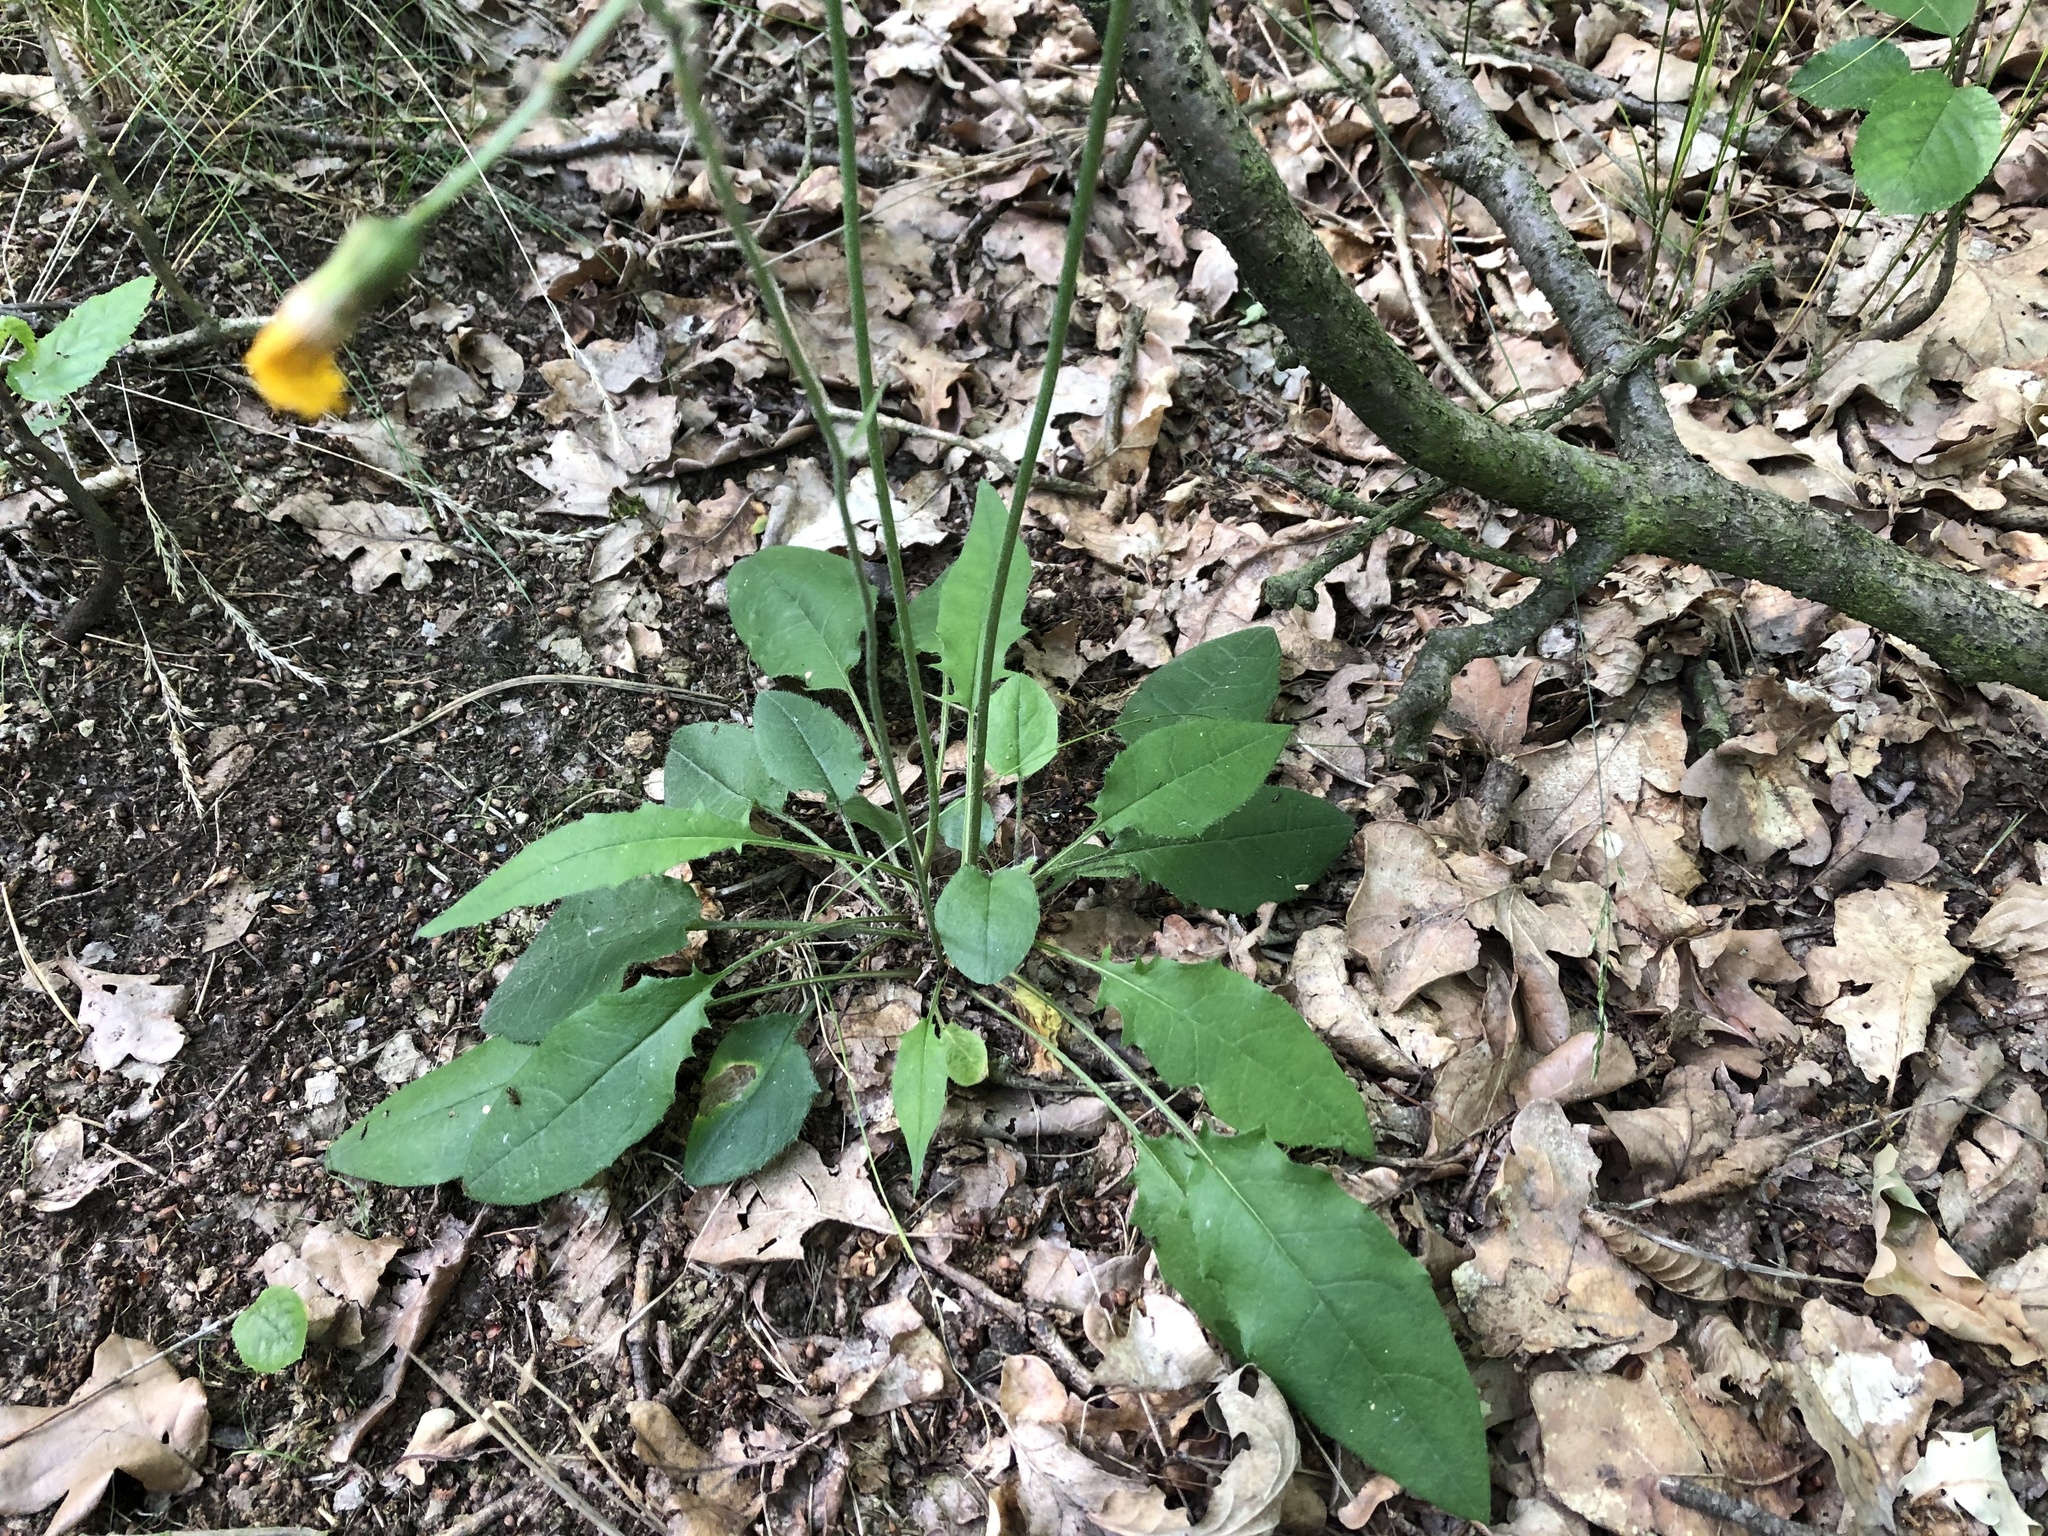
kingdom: Plantae
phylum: Tracheophyta
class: Magnoliopsida
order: Asterales
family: Asteraceae
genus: Hieracium
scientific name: Hieracium murorum
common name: Wall hawkweed
